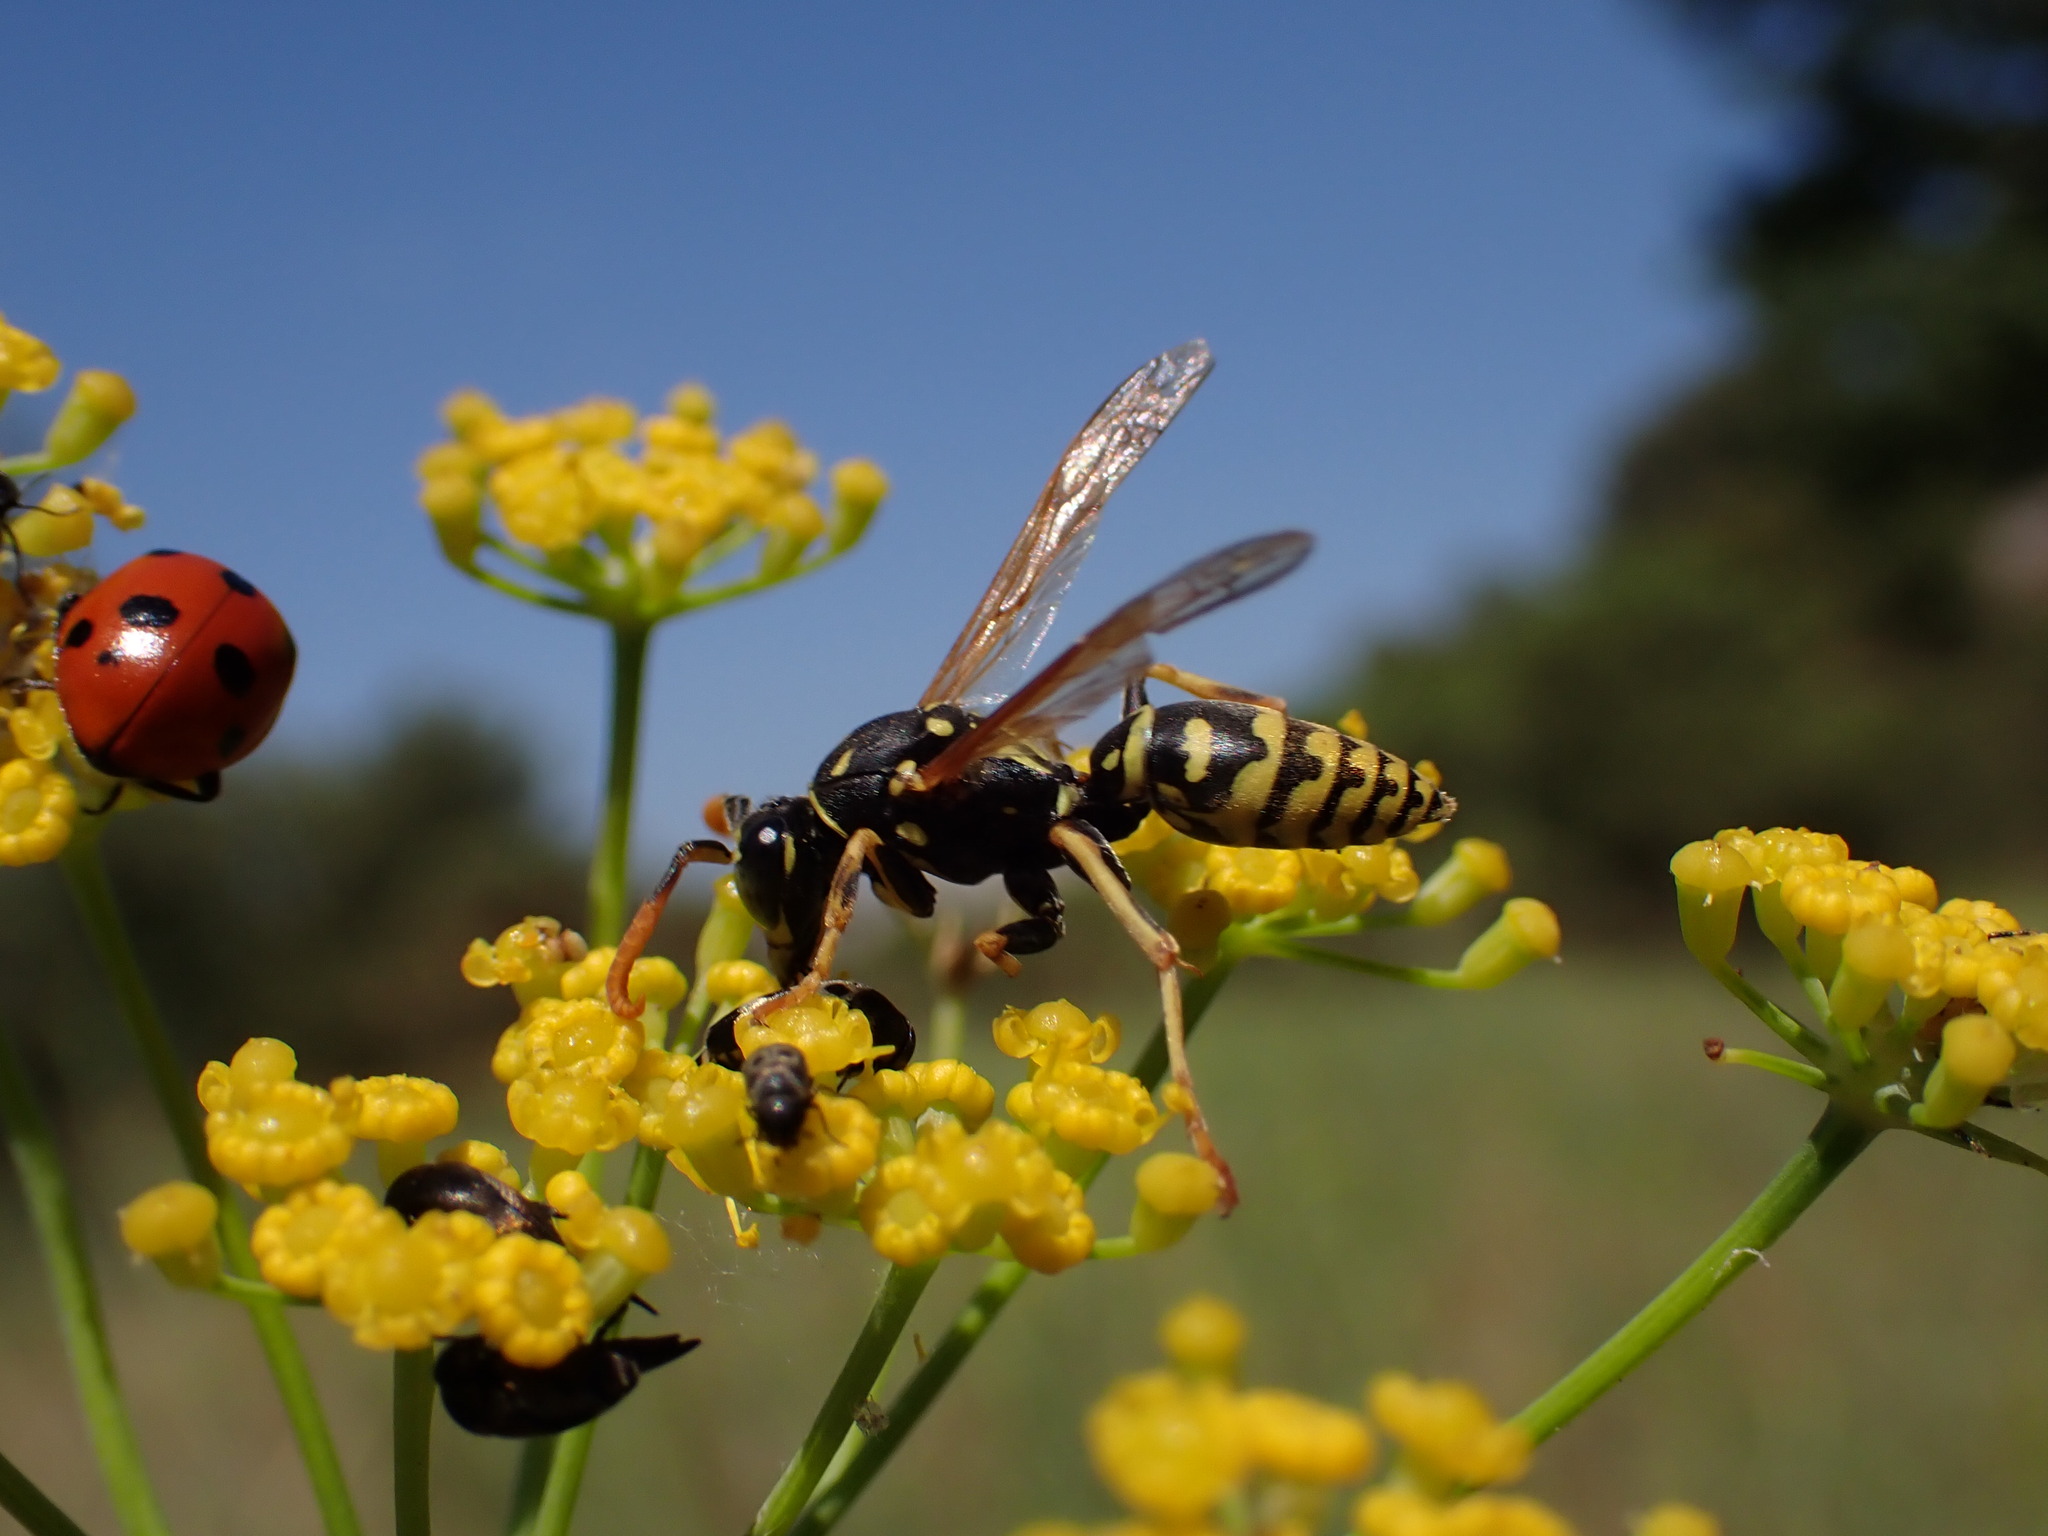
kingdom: Animalia
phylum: Arthropoda
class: Insecta
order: Hymenoptera
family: Eumenidae
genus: Polistes
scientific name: Polistes dominula
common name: Paper wasp
